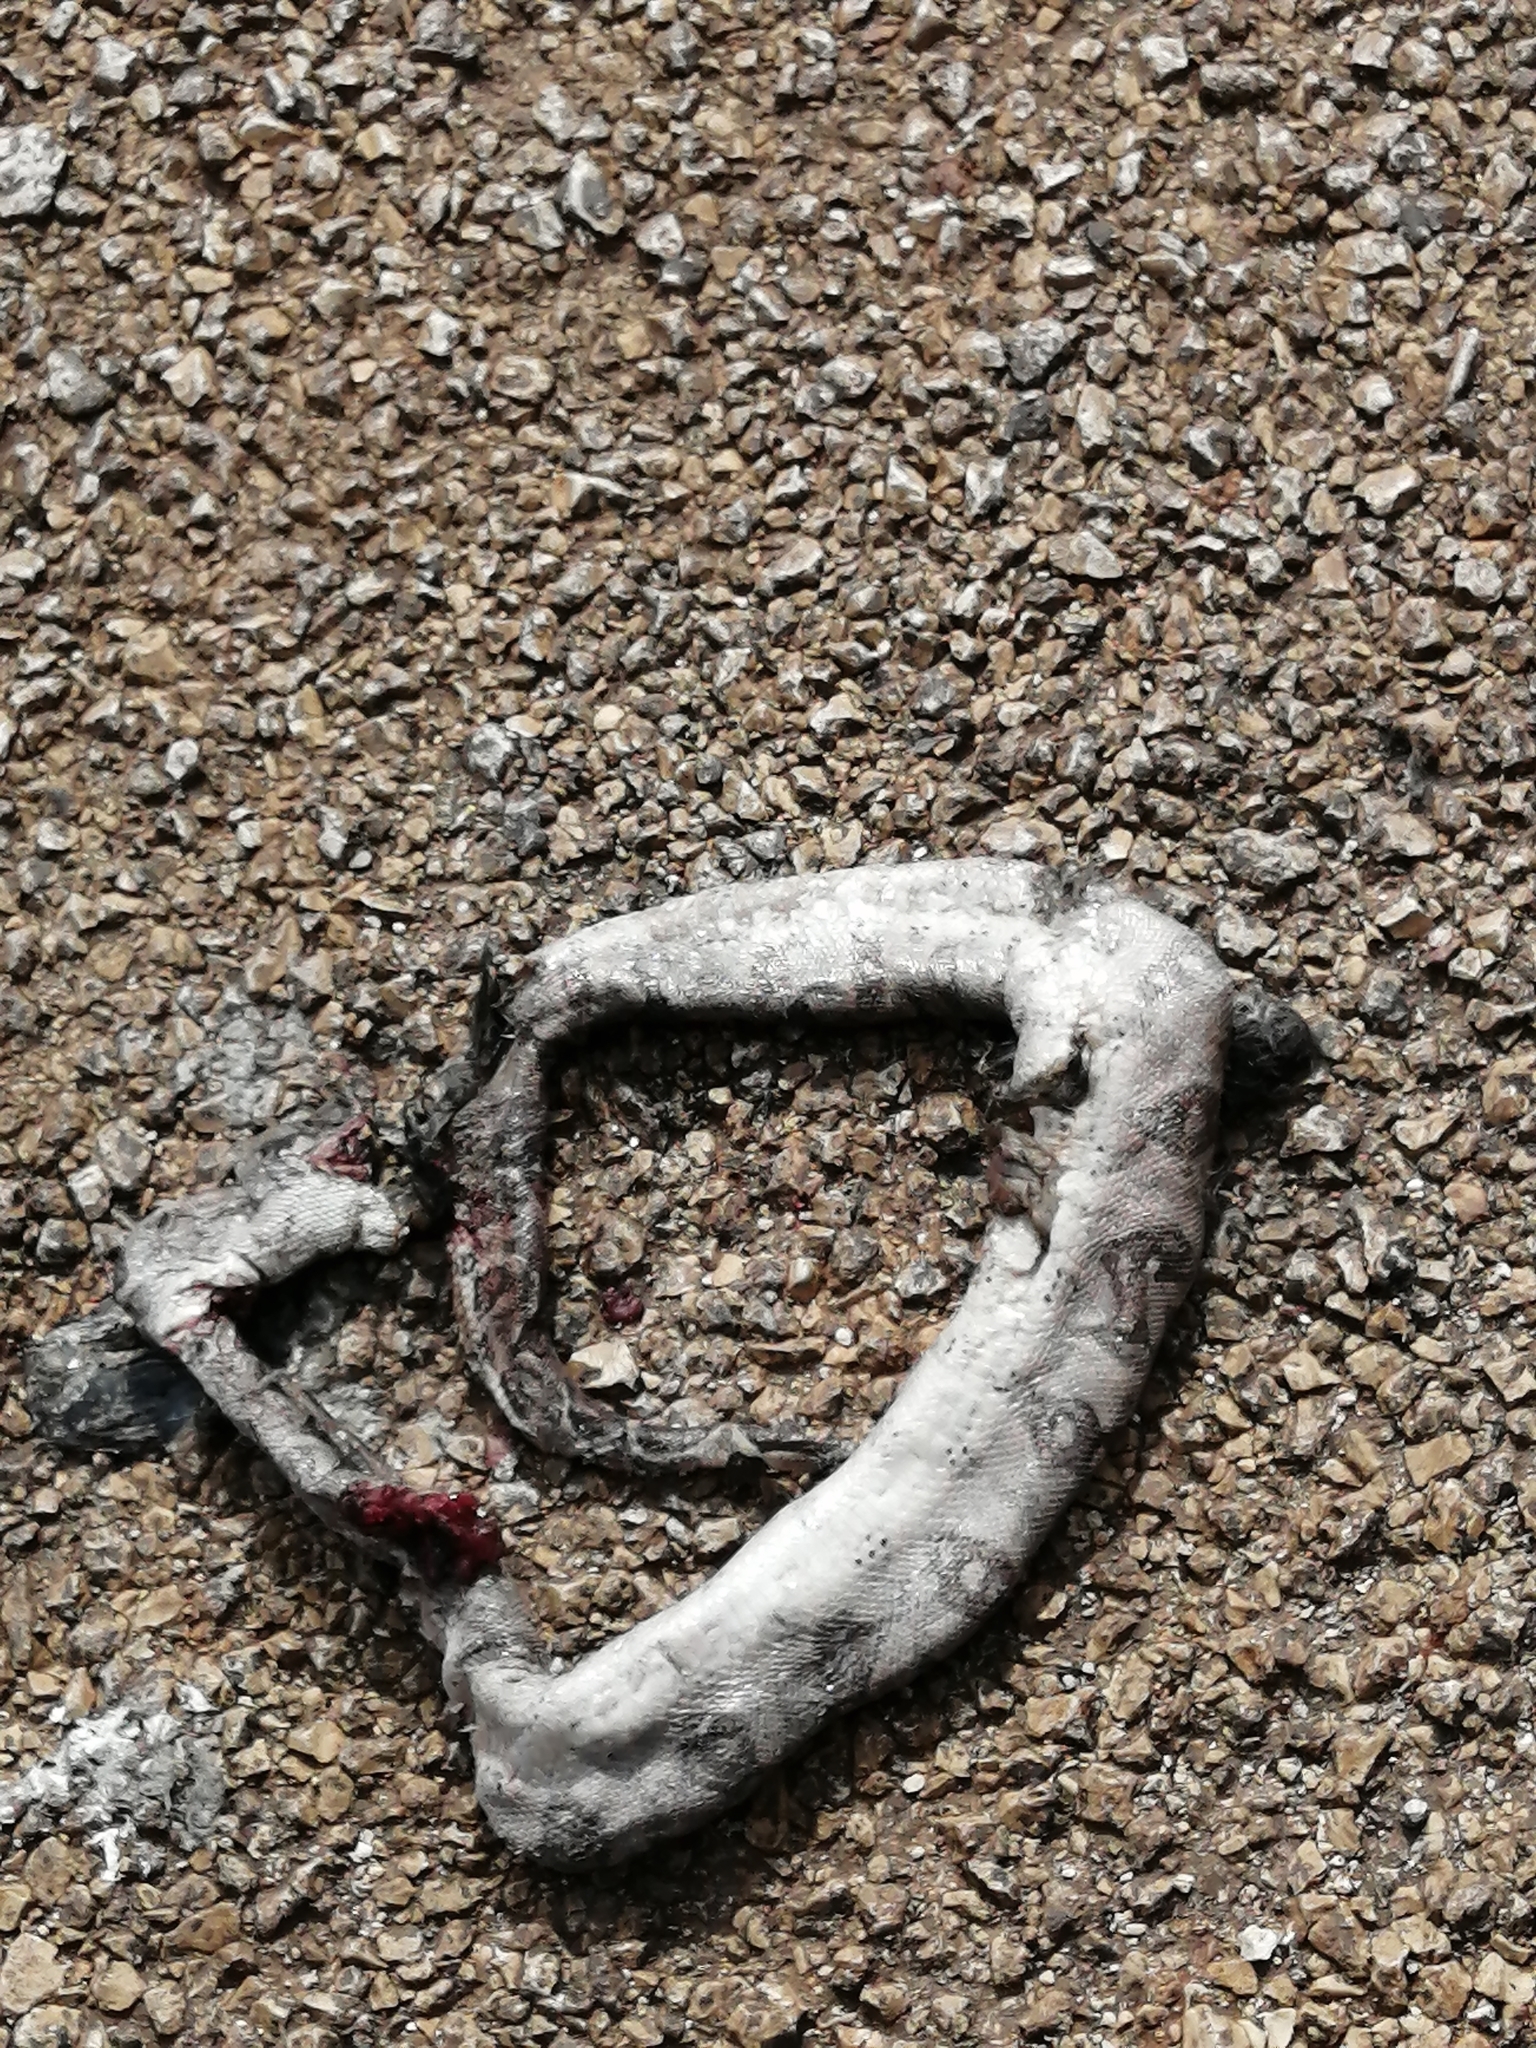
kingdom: Animalia
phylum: Chordata
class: Squamata
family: Boidae
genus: Boa
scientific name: Boa imperator
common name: Central american boa
